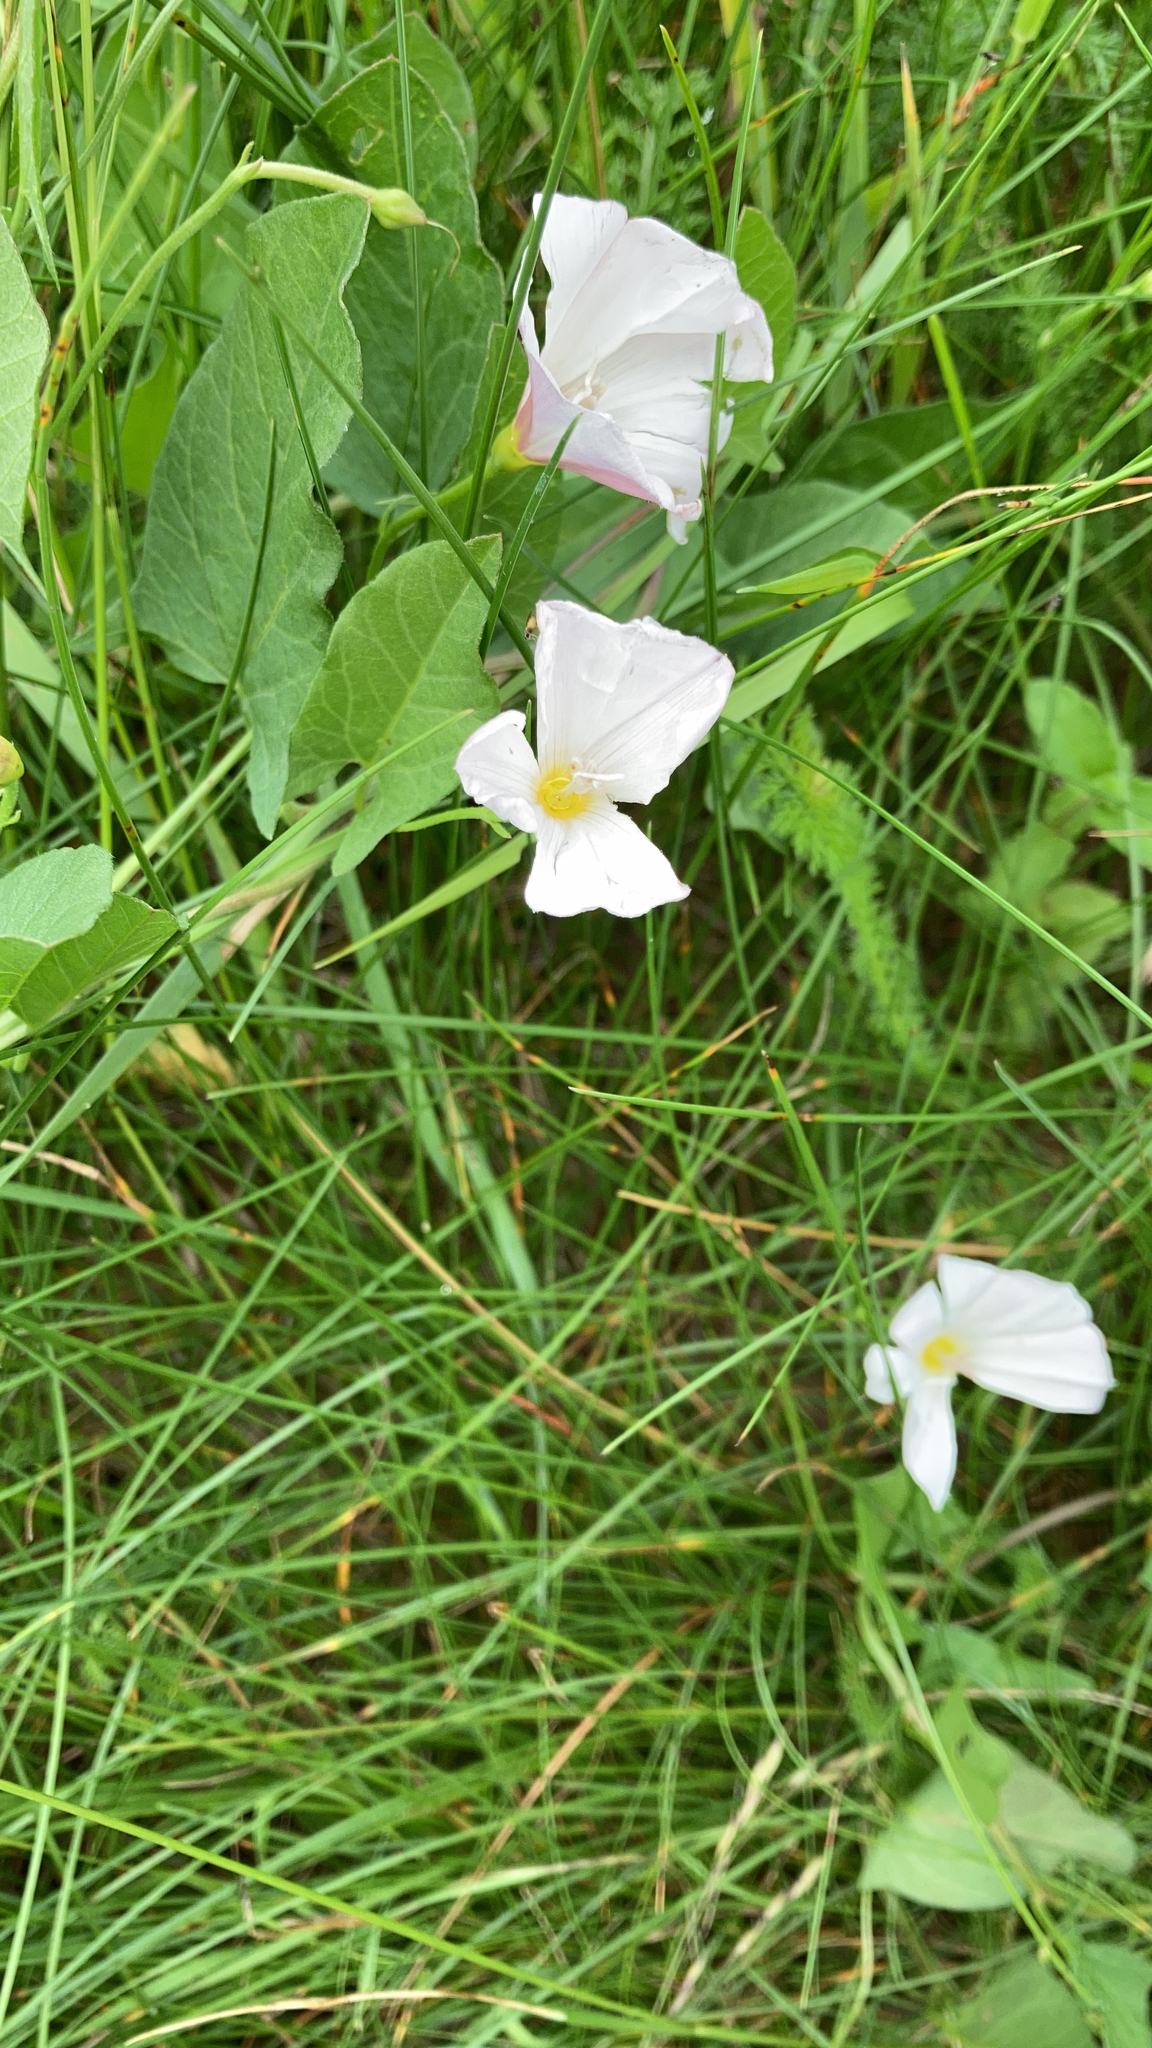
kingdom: Plantae
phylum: Tracheophyta
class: Magnoliopsida
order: Solanales
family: Convolvulaceae
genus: Convolvulus
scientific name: Convolvulus arvensis
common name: Field bindweed
